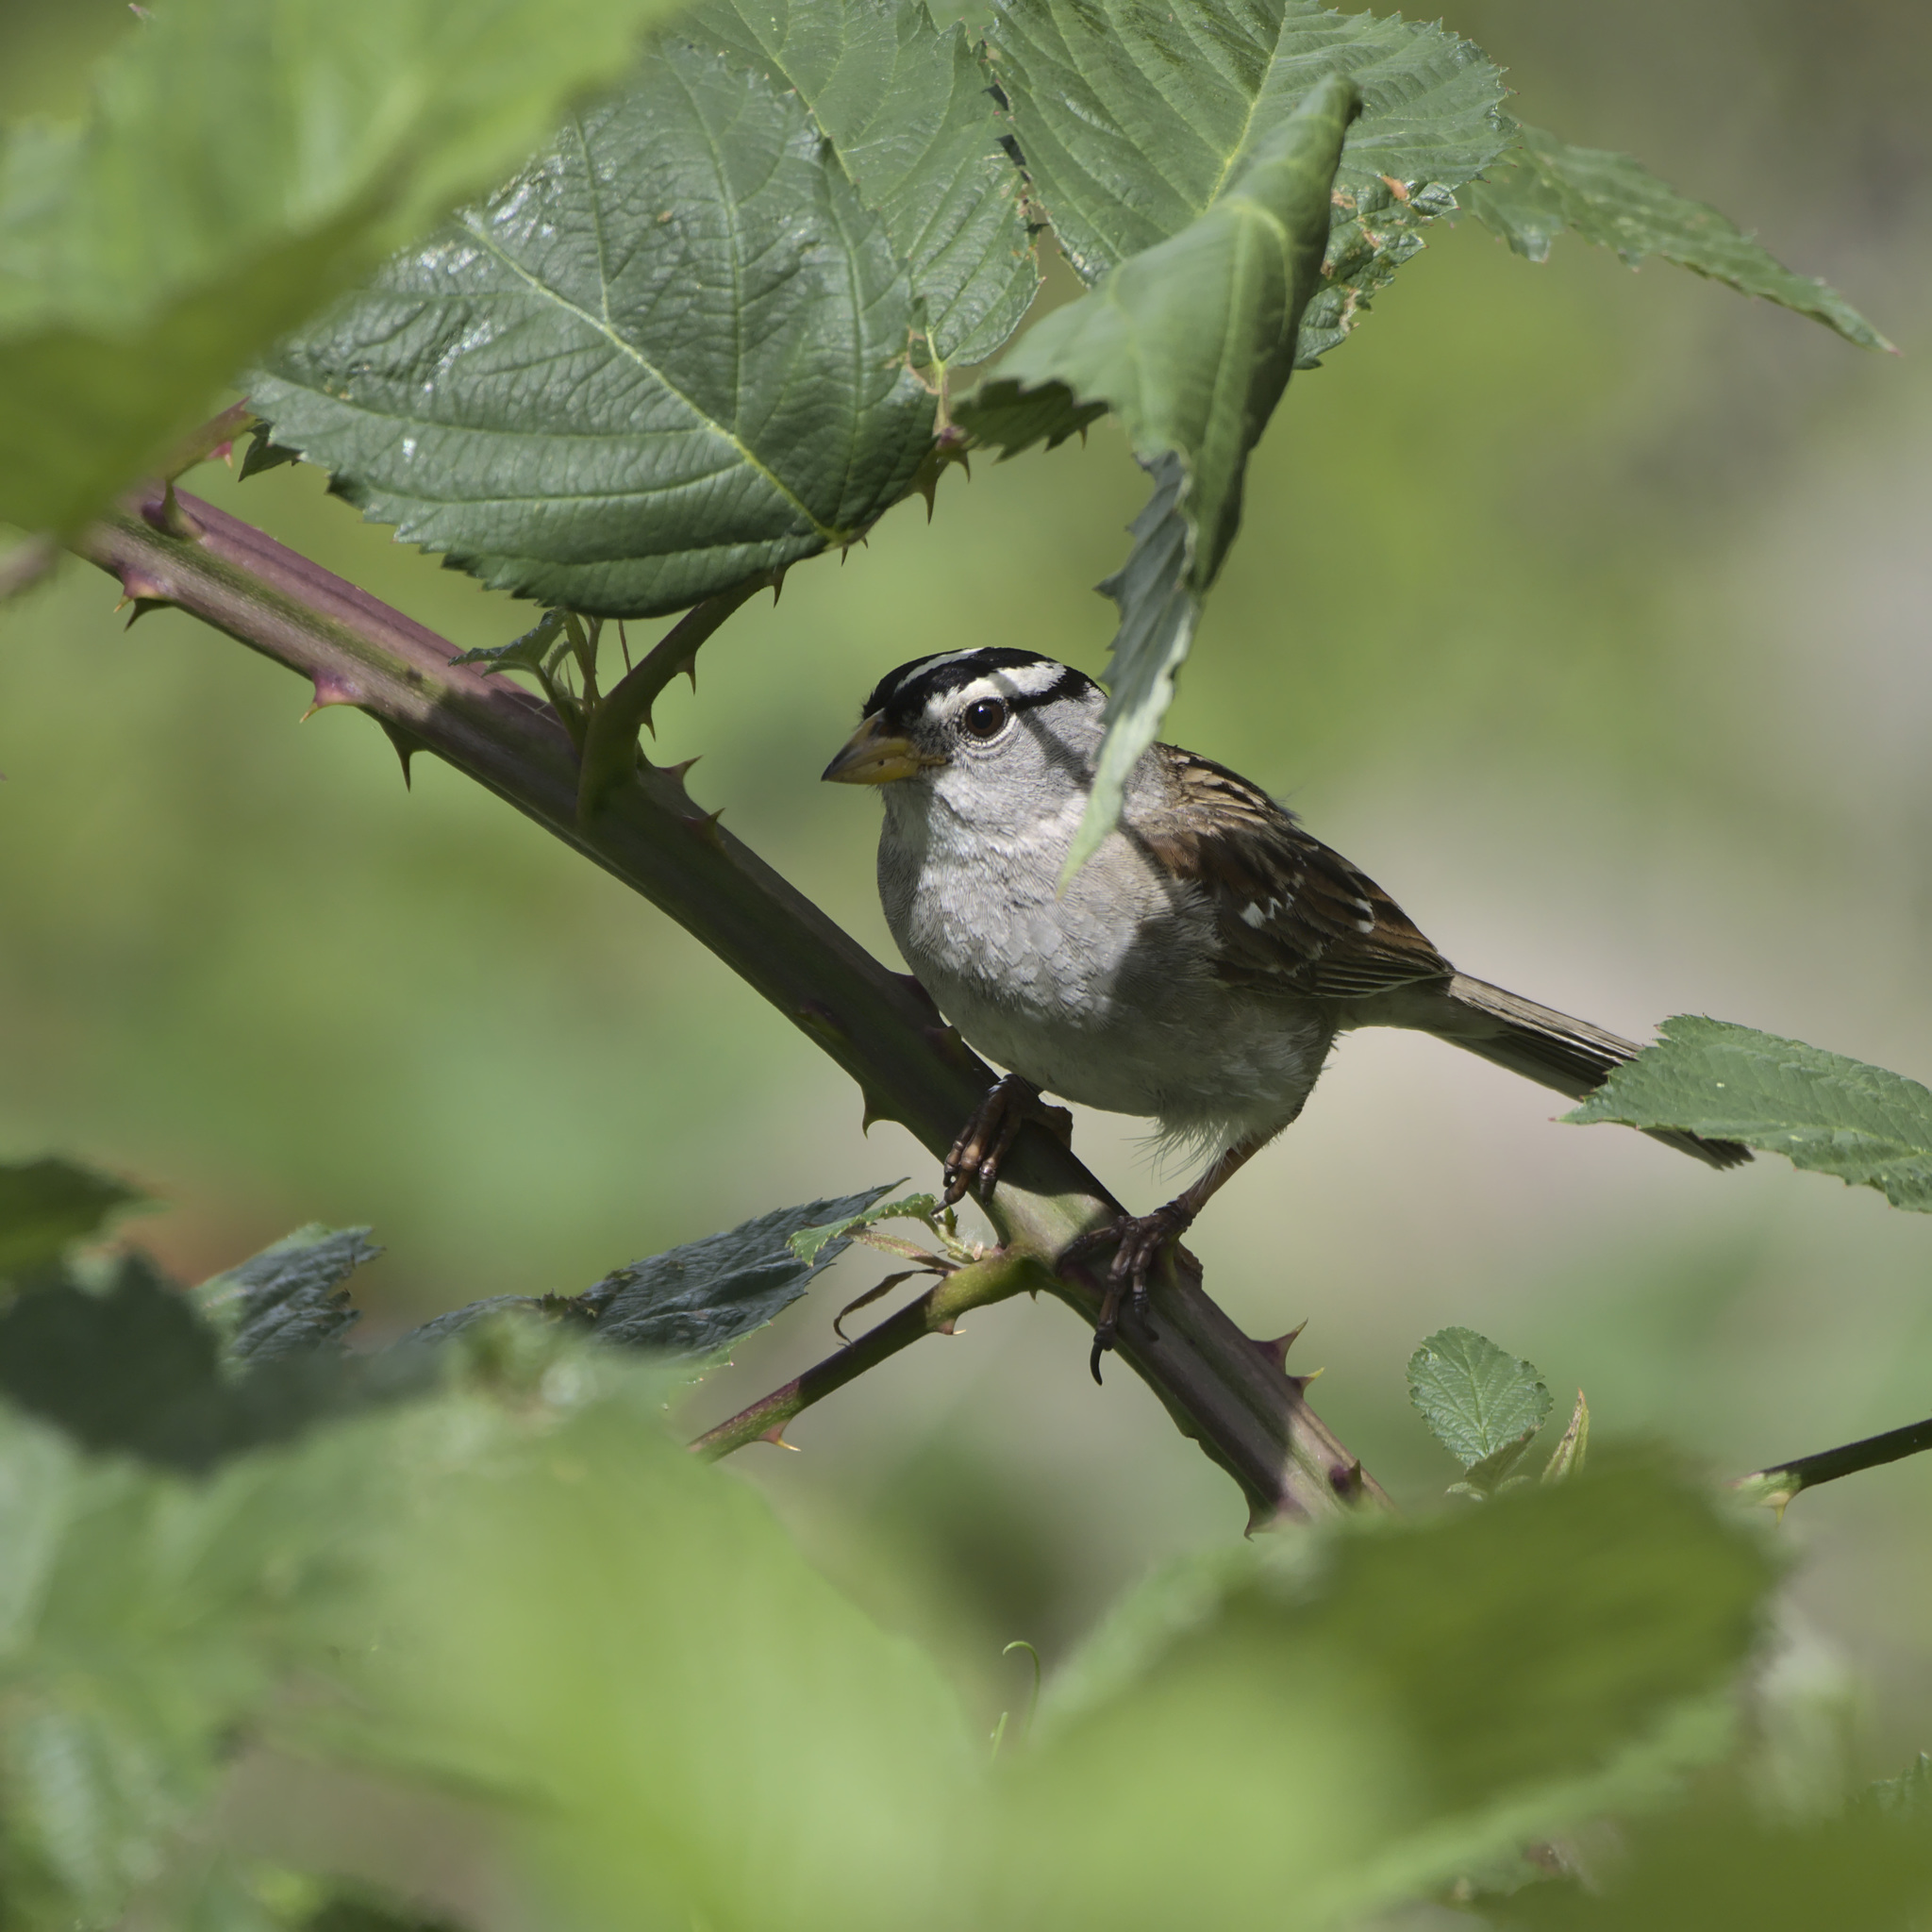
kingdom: Animalia
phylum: Chordata
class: Aves
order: Passeriformes
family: Passerellidae
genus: Zonotrichia
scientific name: Zonotrichia leucophrys
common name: White-crowned sparrow
